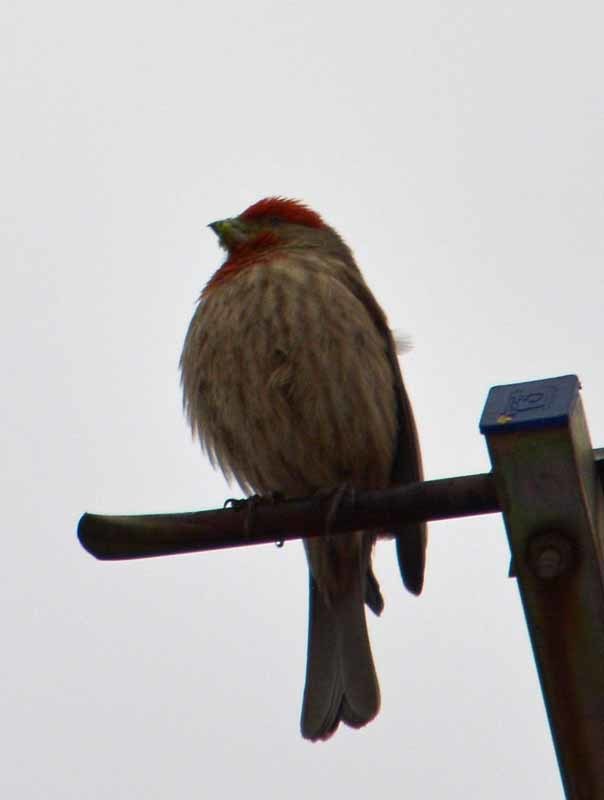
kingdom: Animalia
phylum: Chordata
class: Aves
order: Passeriformes
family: Fringillidae
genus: Haemorhous
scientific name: Haemorhous mexicanus
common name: House finch
